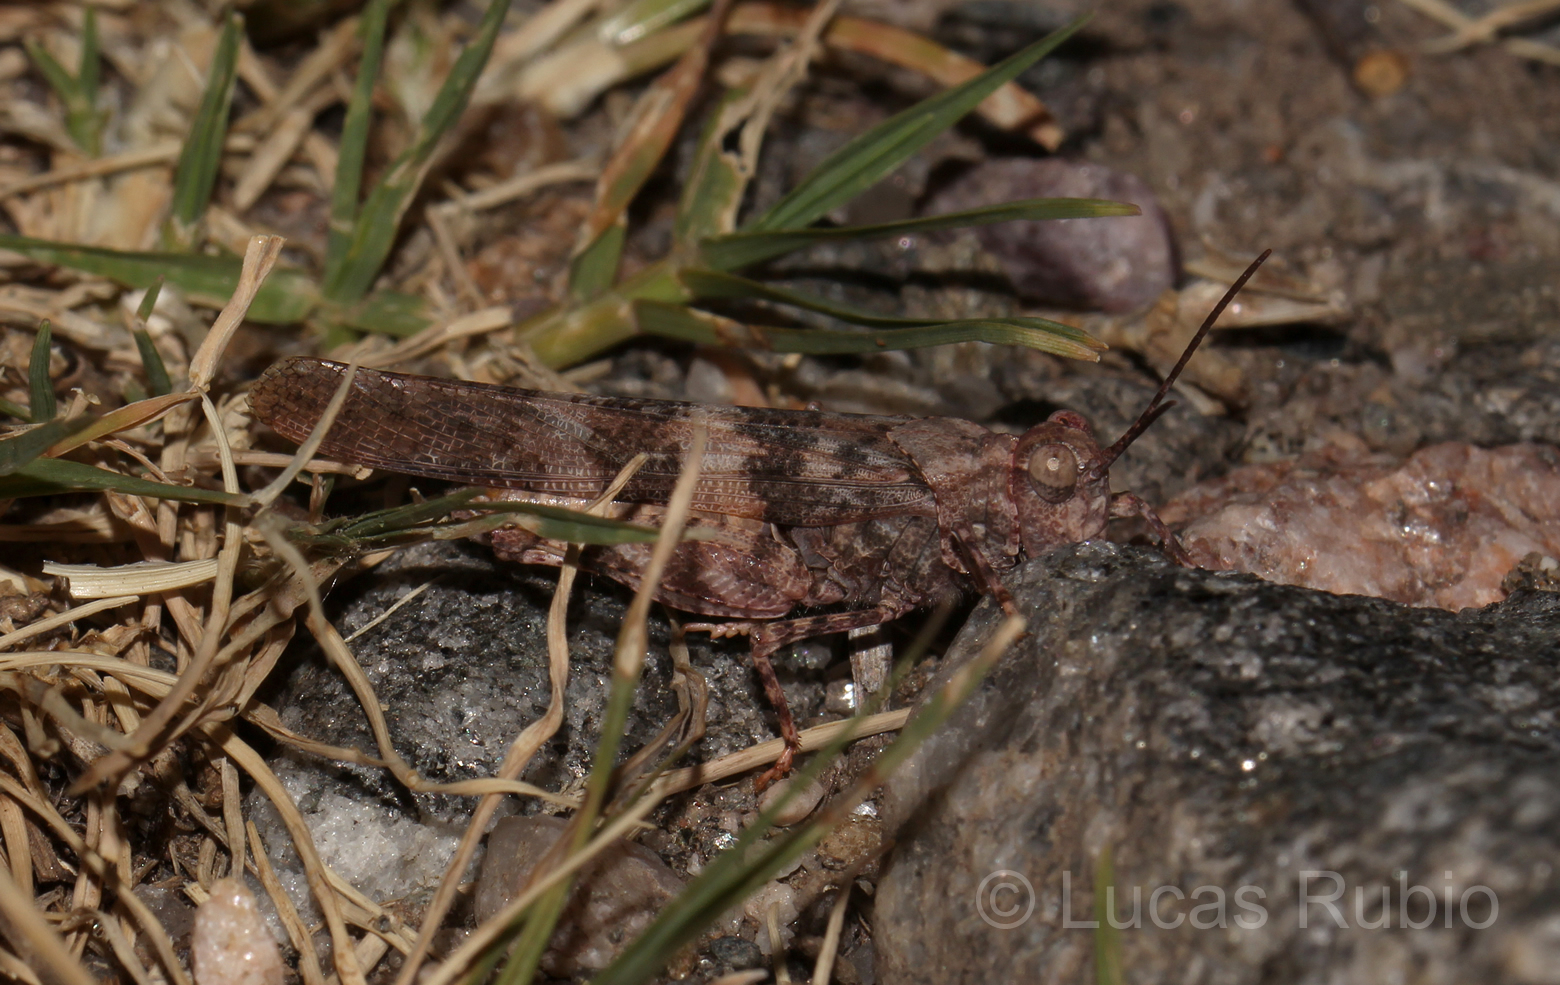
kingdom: Animalia
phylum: Arthropoda
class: Insecta
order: Orthoptera
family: Acrididae
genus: Trimerotropis
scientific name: Trimerotropis pallidipennis
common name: Pallid-winged grasshopper
